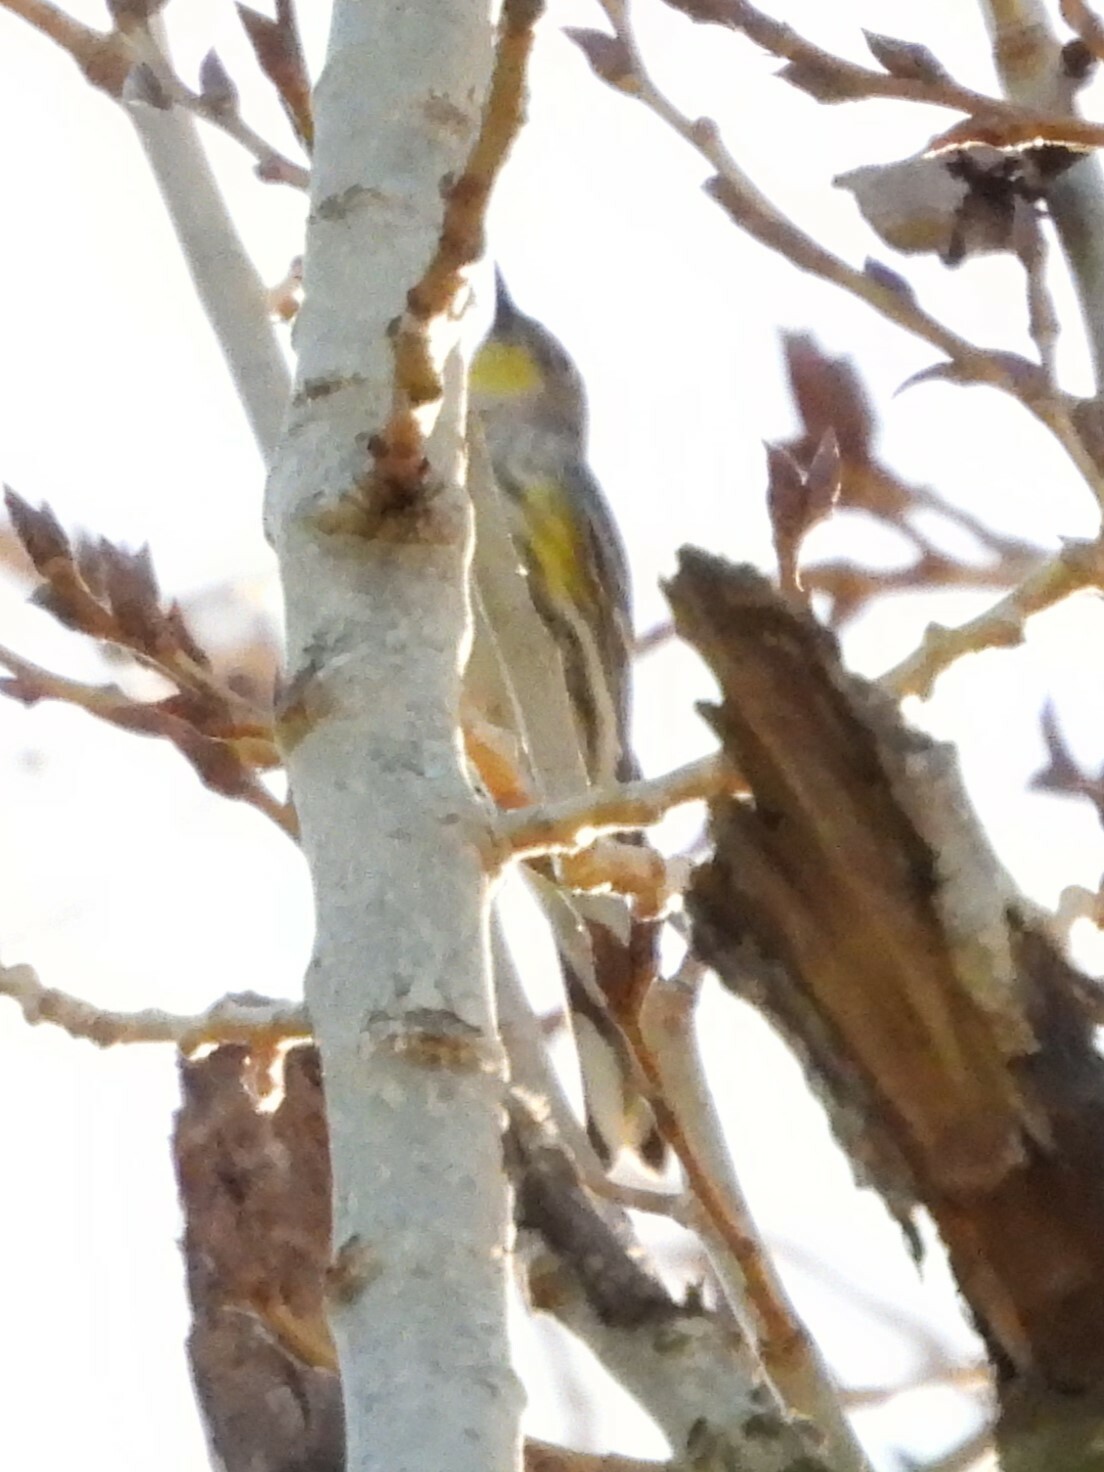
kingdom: Animalia
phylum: Chordata
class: Aves
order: Passeriformes
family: Parulidae
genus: Setophaga
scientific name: Setophaga coronata
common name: Myrtle warbler
